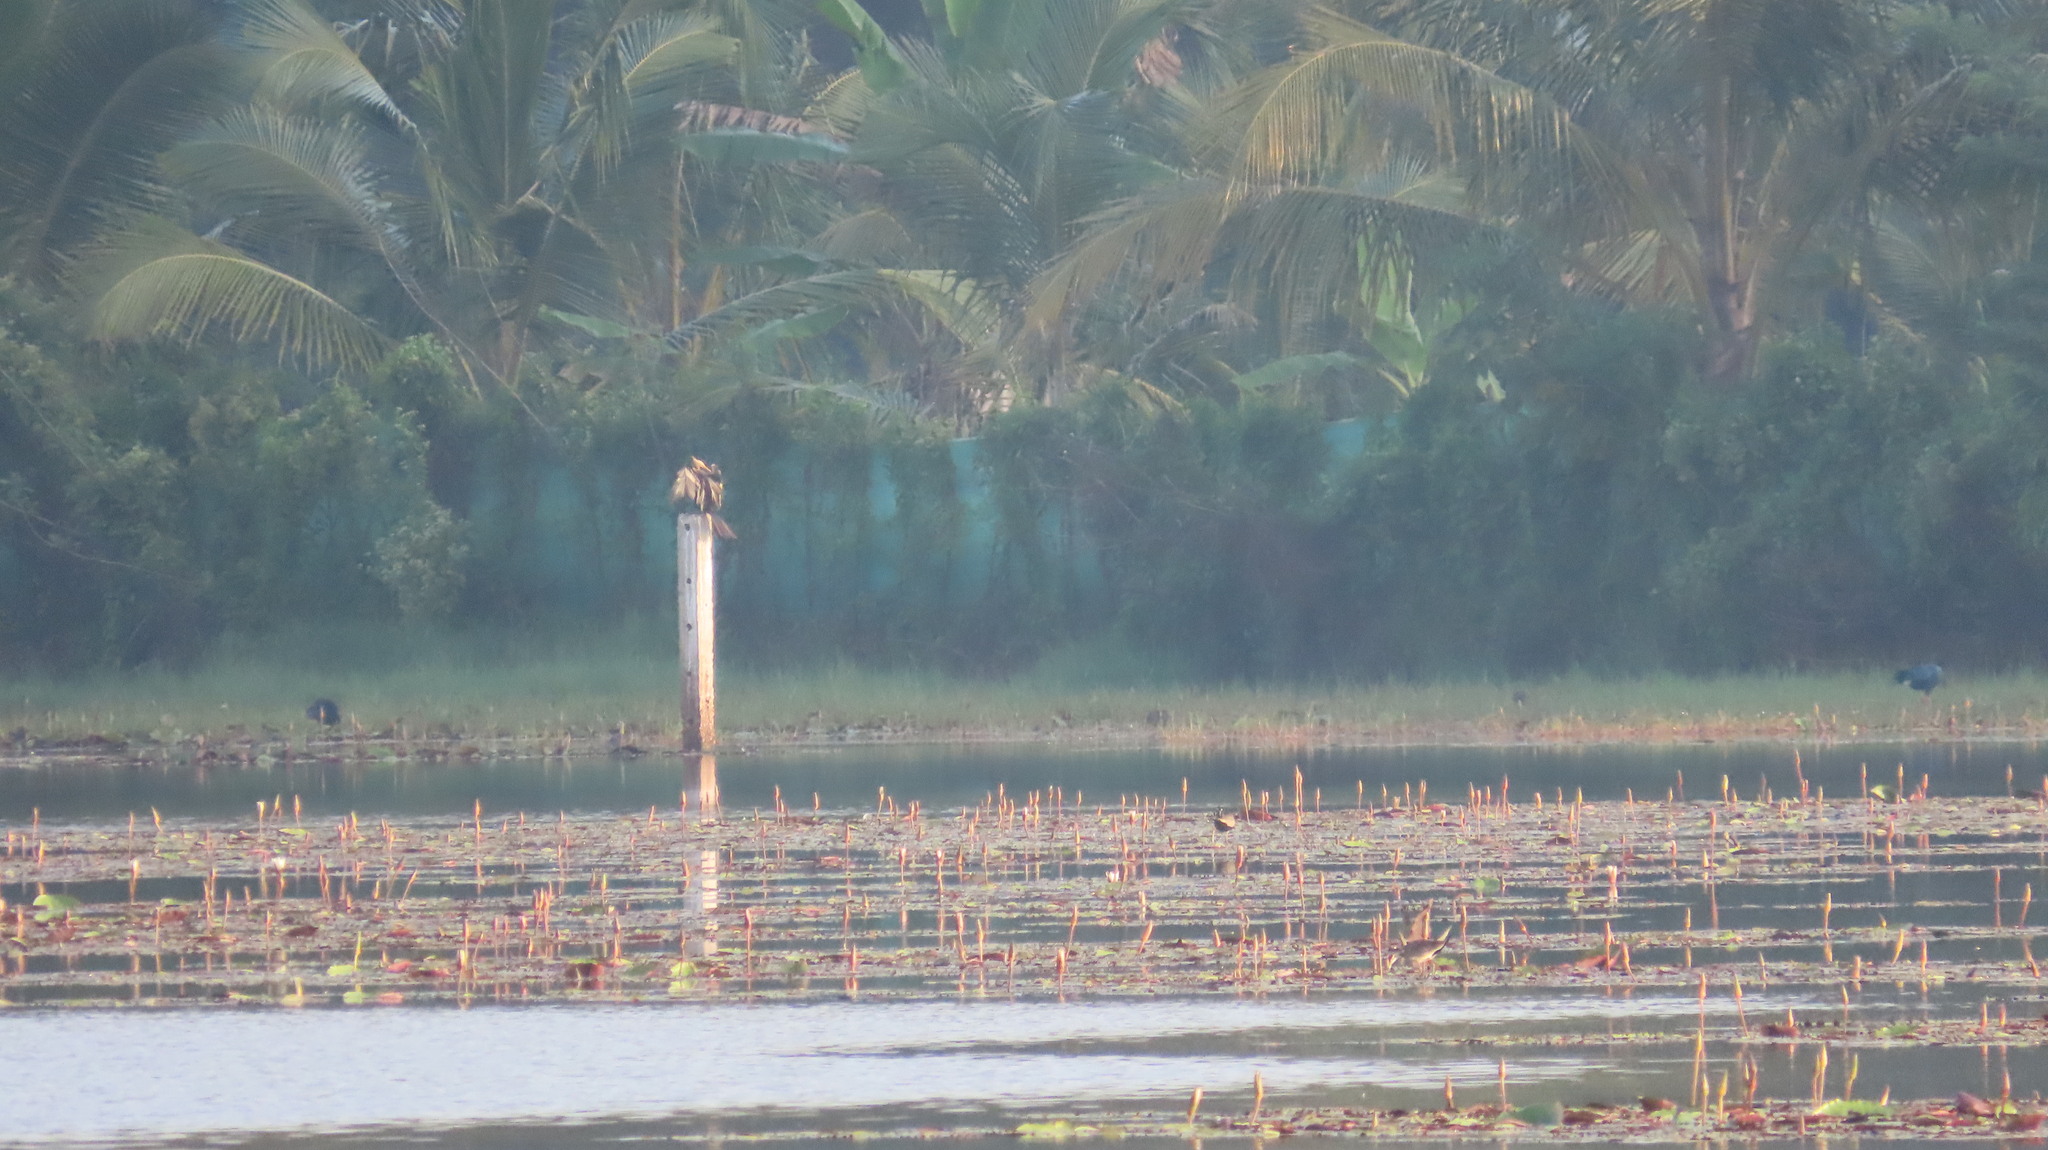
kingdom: Animalia
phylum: Chordata
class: Aves
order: Suliformes
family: Anhingidae
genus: Anhinga
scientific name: Anhinga melanogaster
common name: Oriental darter
